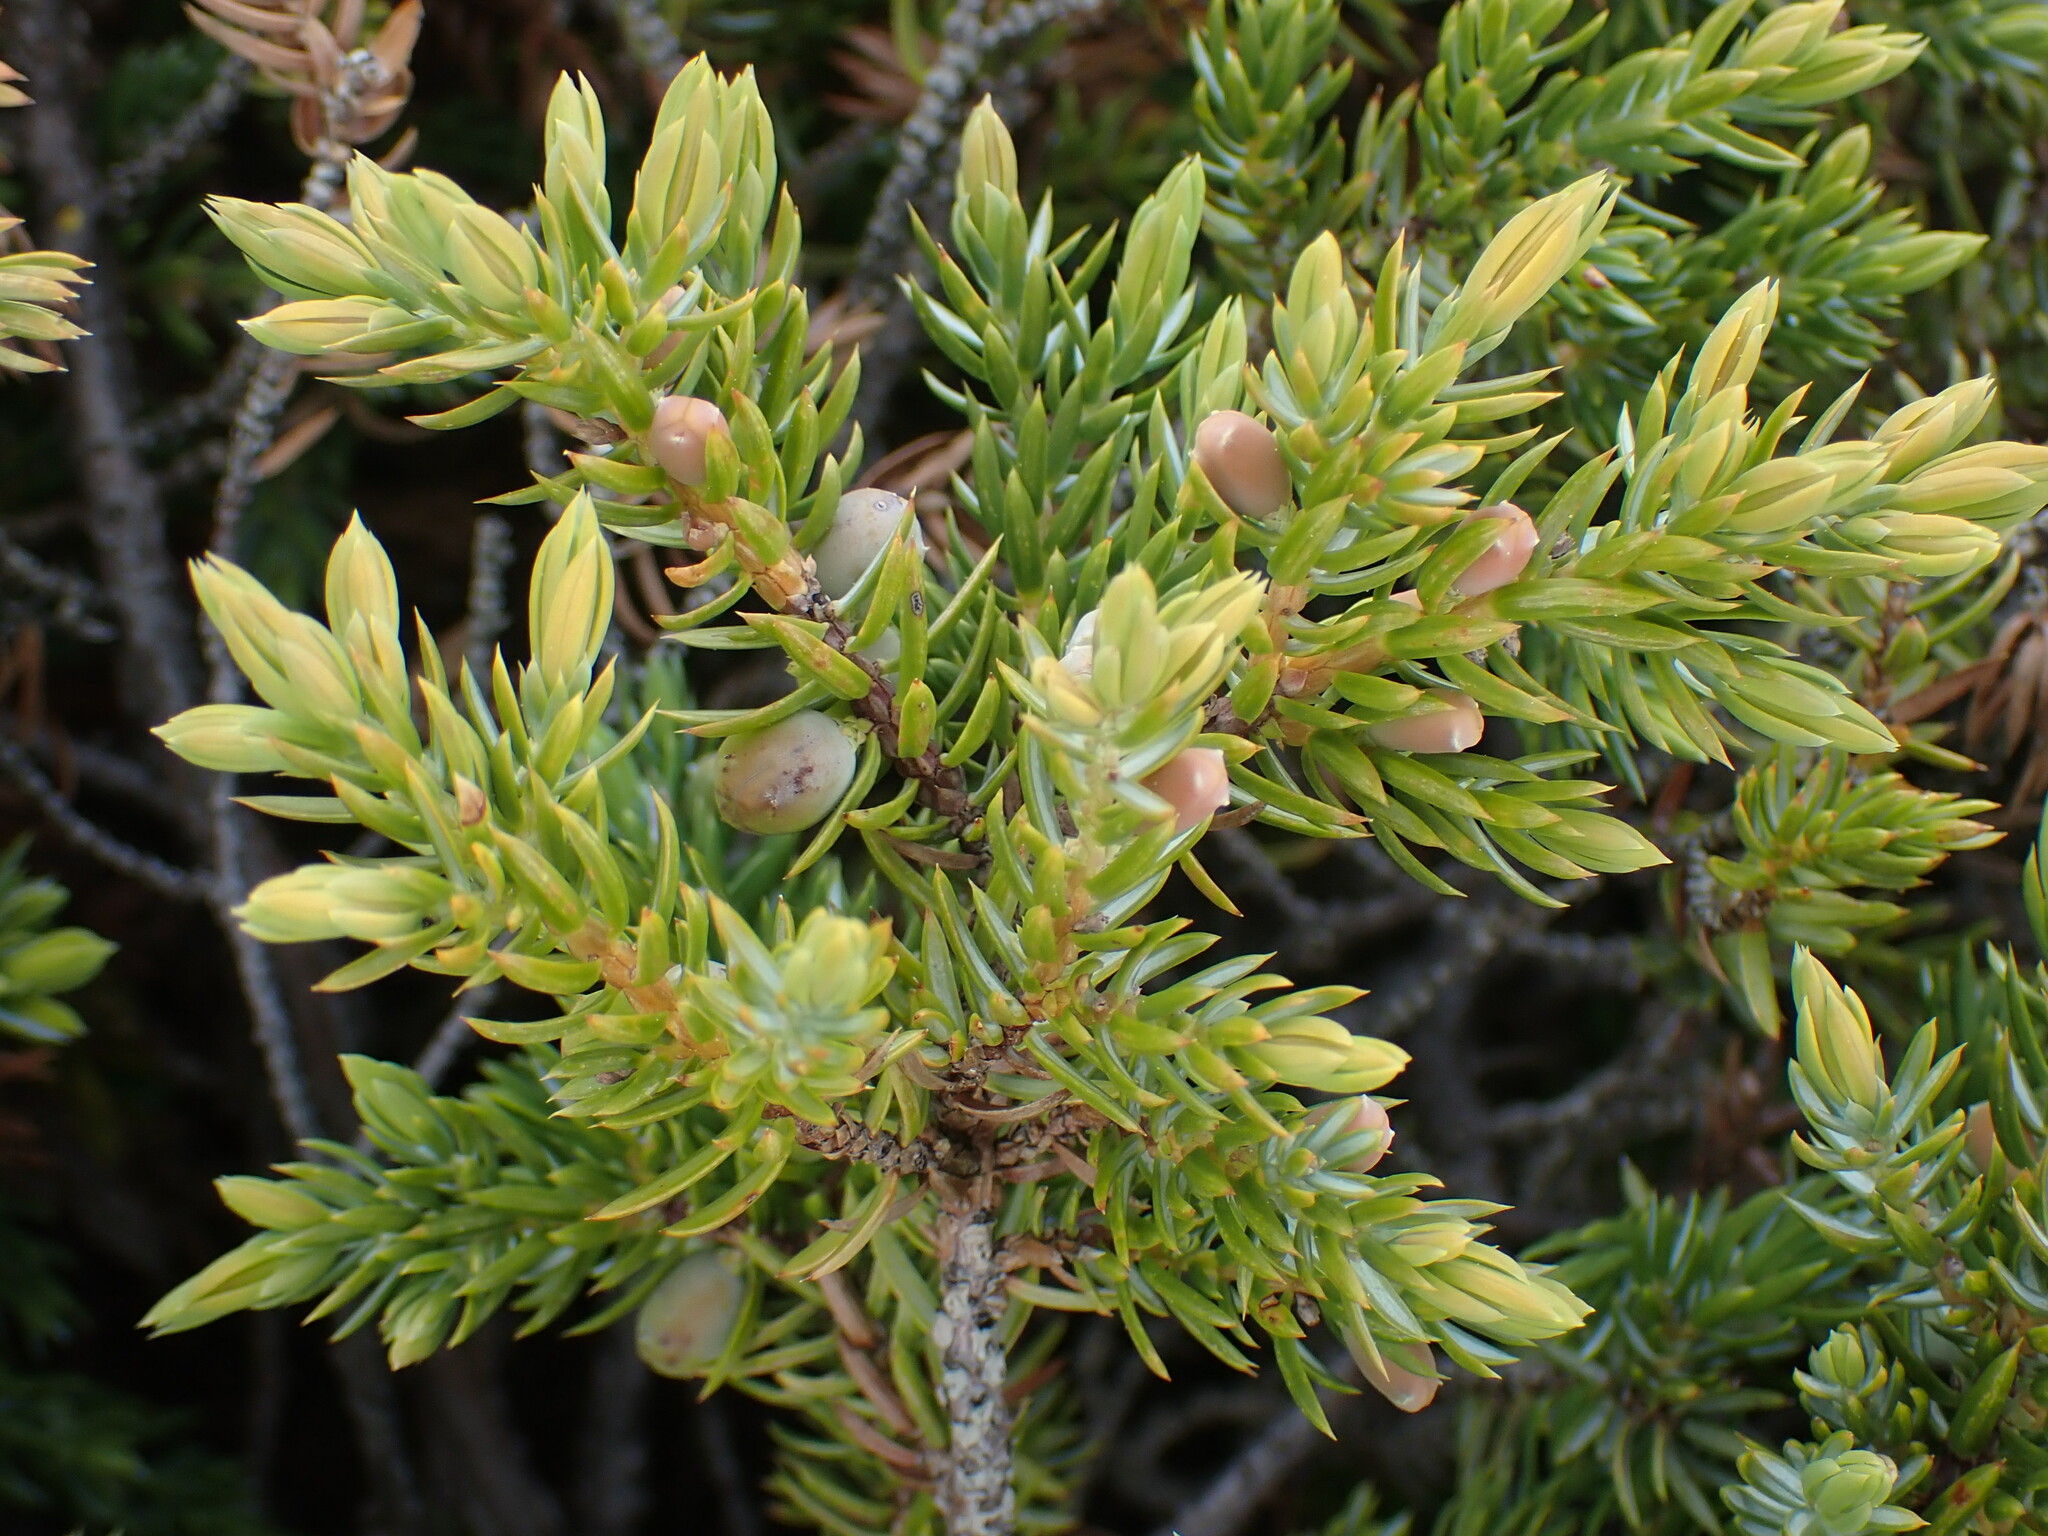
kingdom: Plantae
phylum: Tracheophyta
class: Pinopsida
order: Pinales
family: Cupressaceae
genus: Juniperus
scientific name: Juniperus communis
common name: Common juniper
